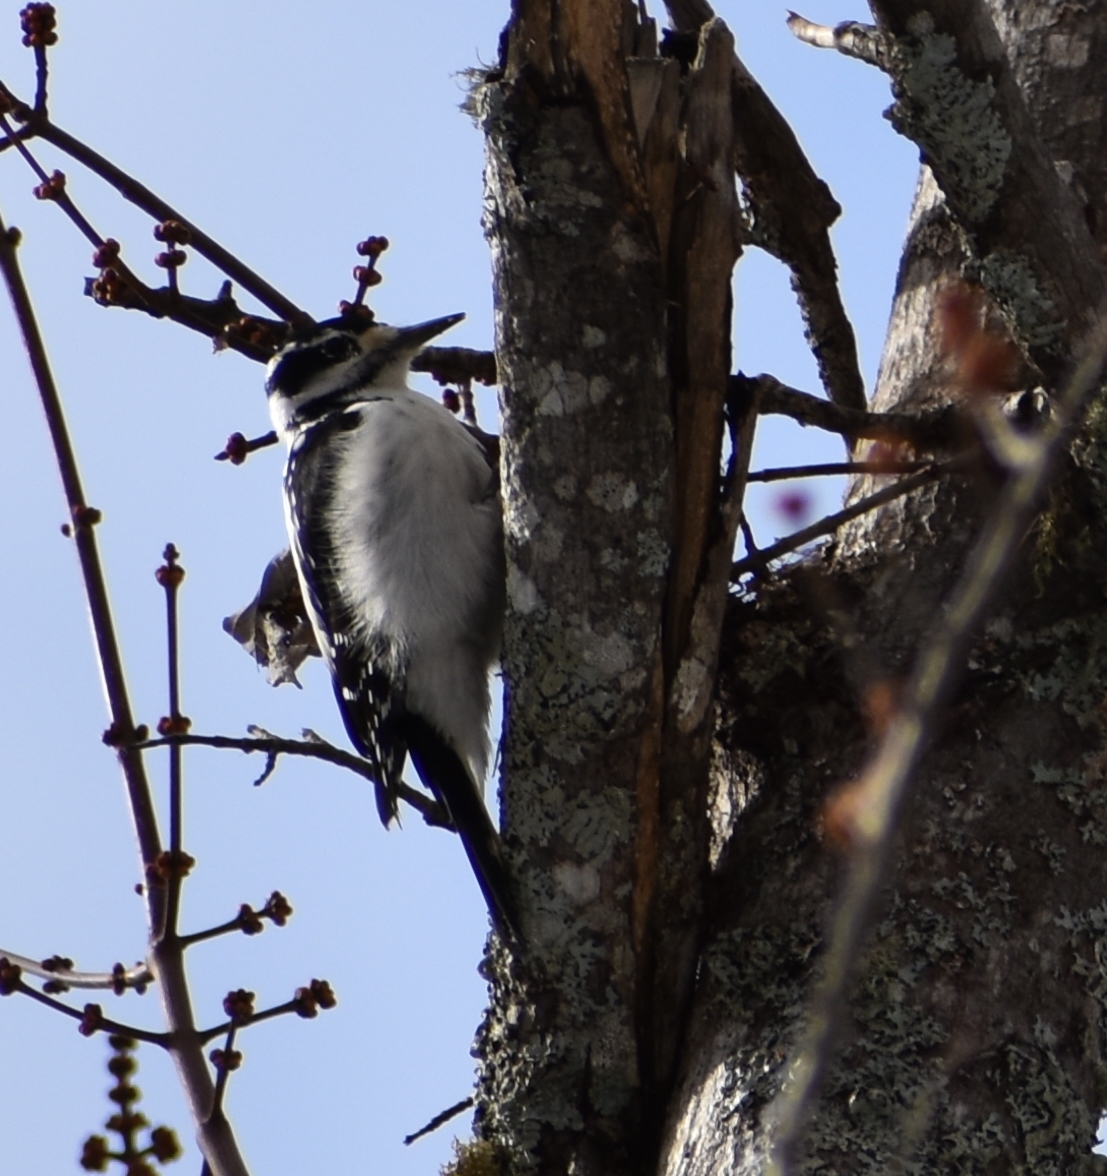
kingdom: Animalia
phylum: Chordata
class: Aves
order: Piciformes
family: Picidae
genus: Leuconotopicus
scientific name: Leuconotopicus villosus
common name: Hairy woodpecker
